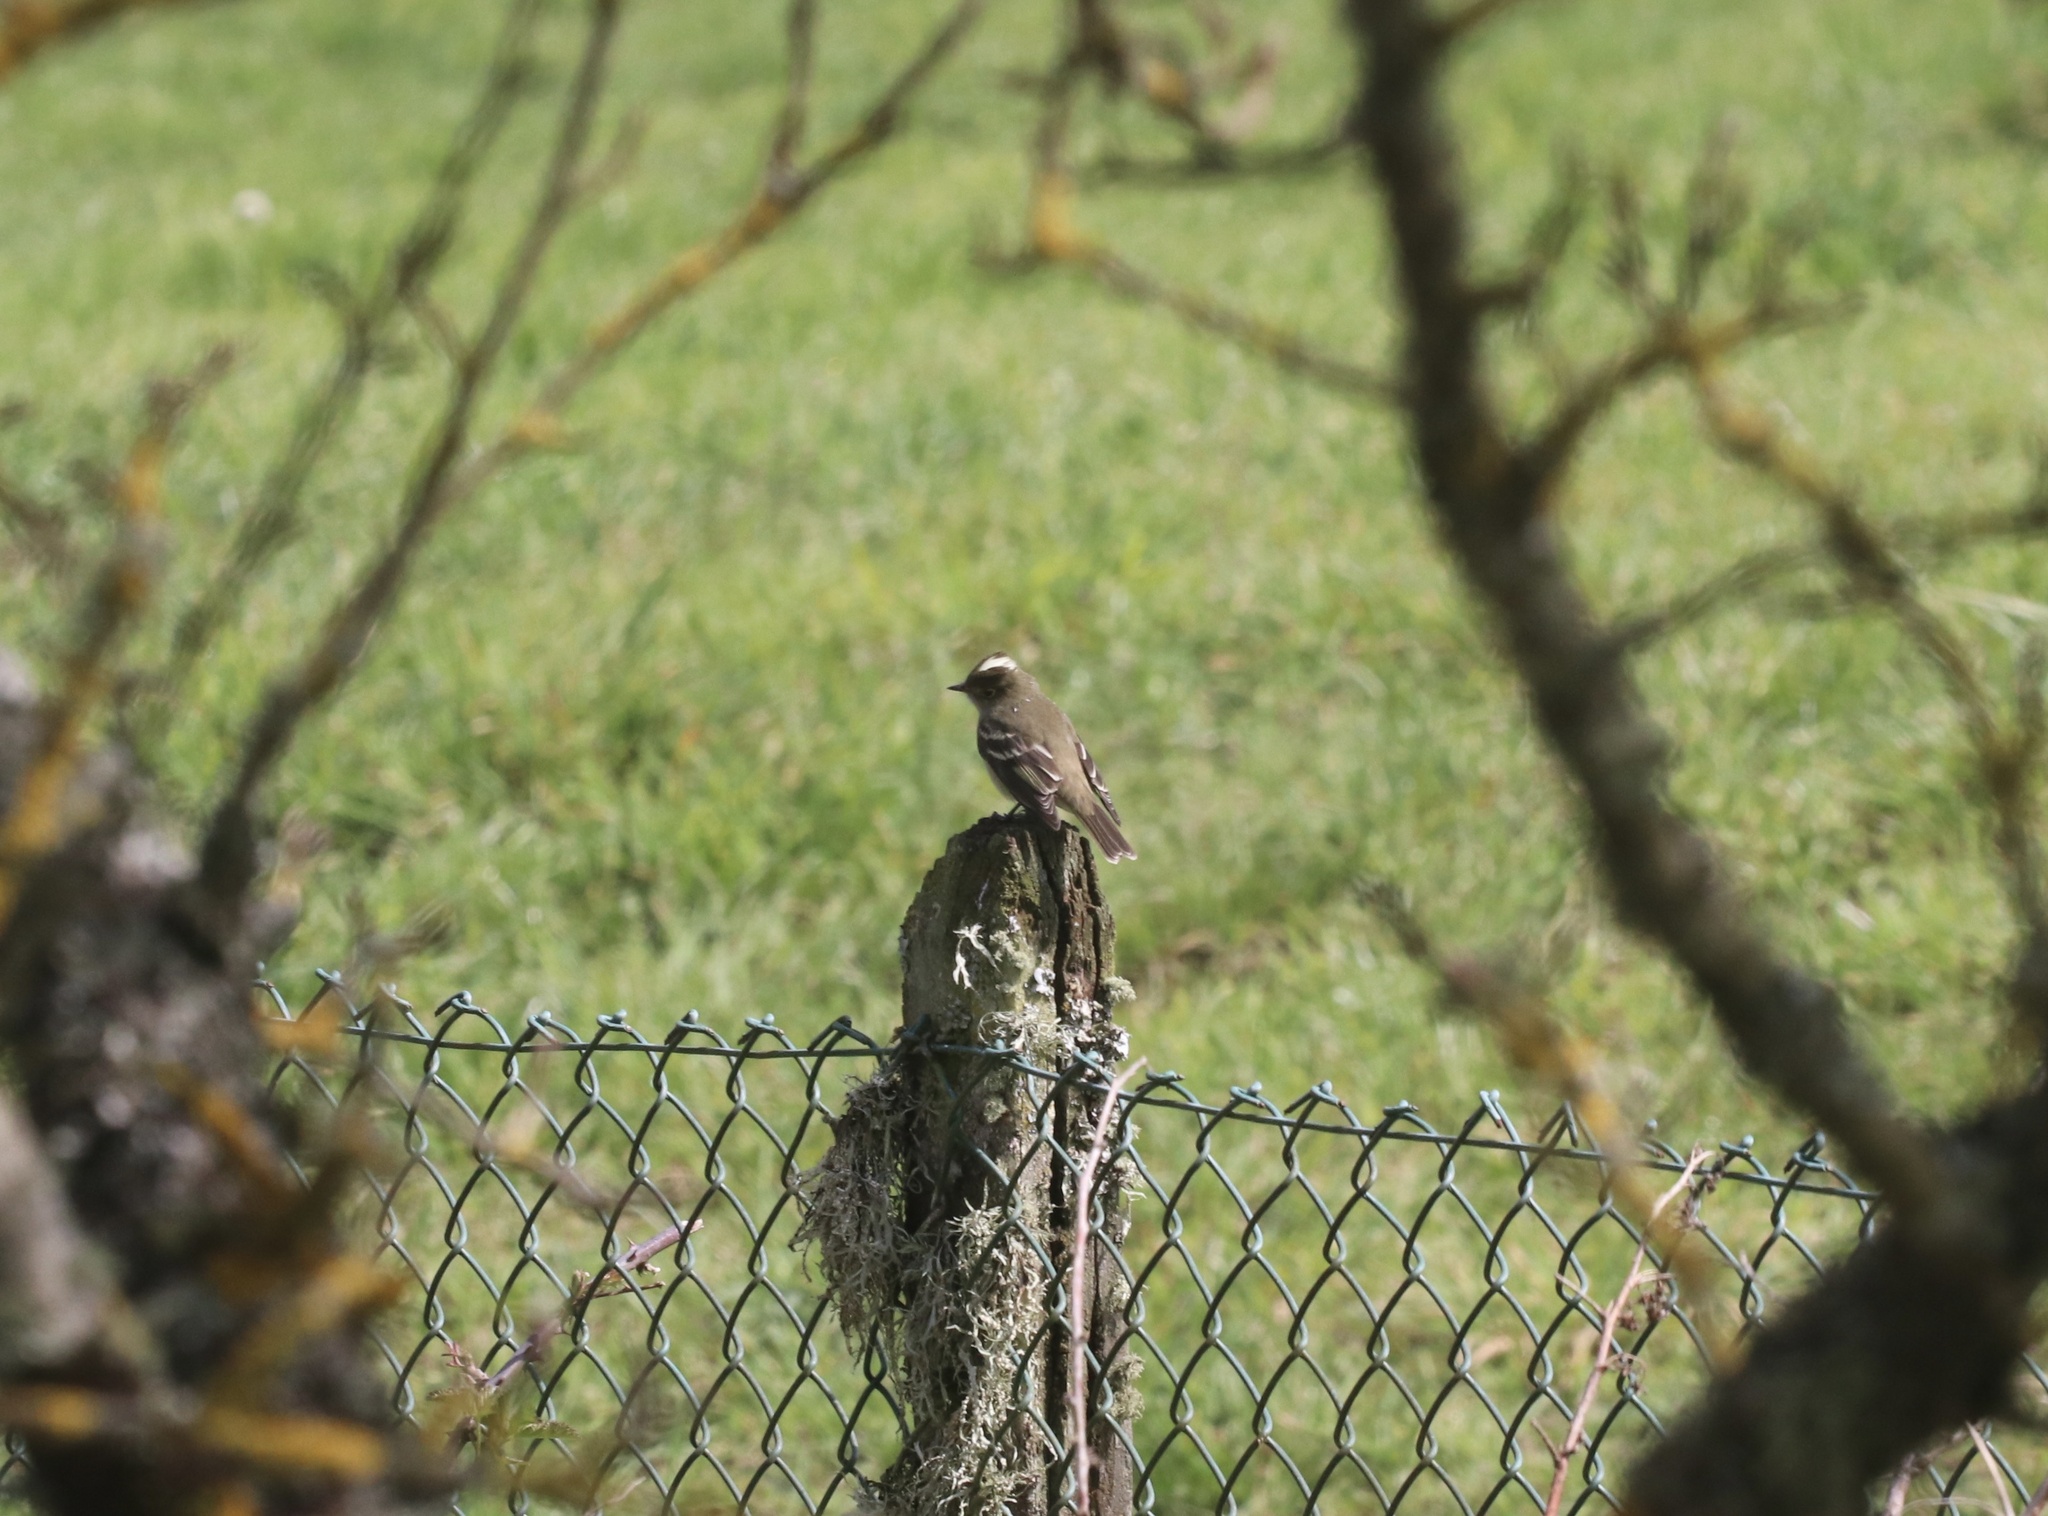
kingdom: Animalia
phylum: Chordata
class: Aves
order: Passeriformes
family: Tyrannidae
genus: Elaenia
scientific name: Elaenia albiceps
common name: White-crested elaenia
